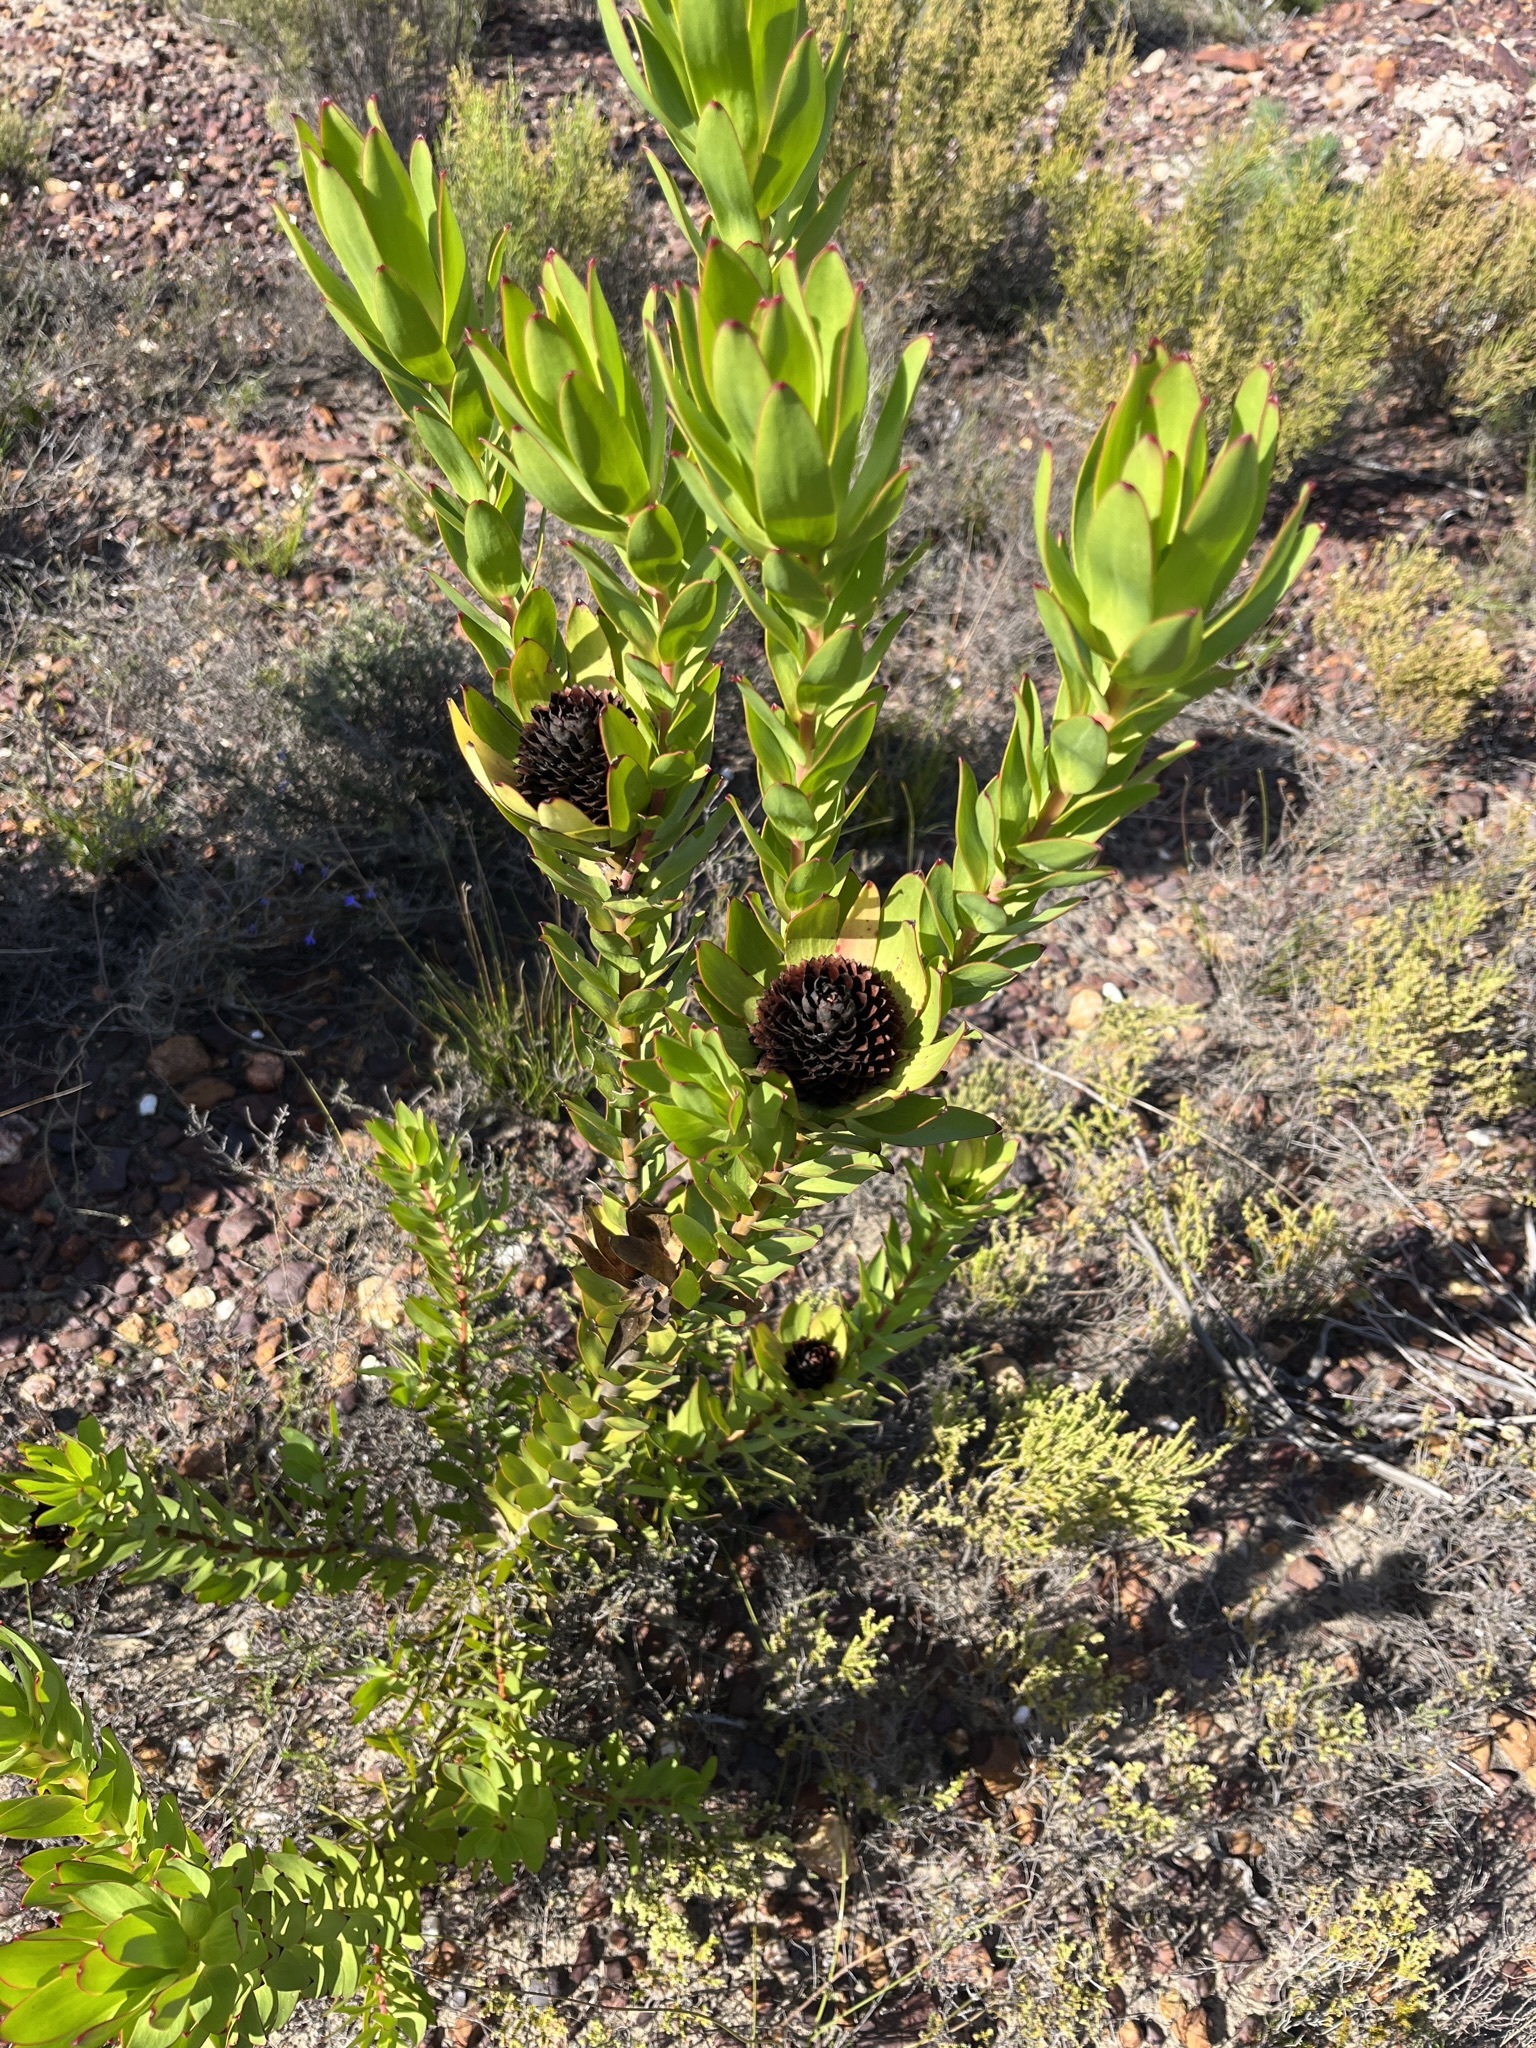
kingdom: Plantae
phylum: Tracheophyta
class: Magnoliopsida
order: Proteales
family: Proteaceae
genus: Leucadendron
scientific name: Leucadendron elimense
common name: Elim conebush
